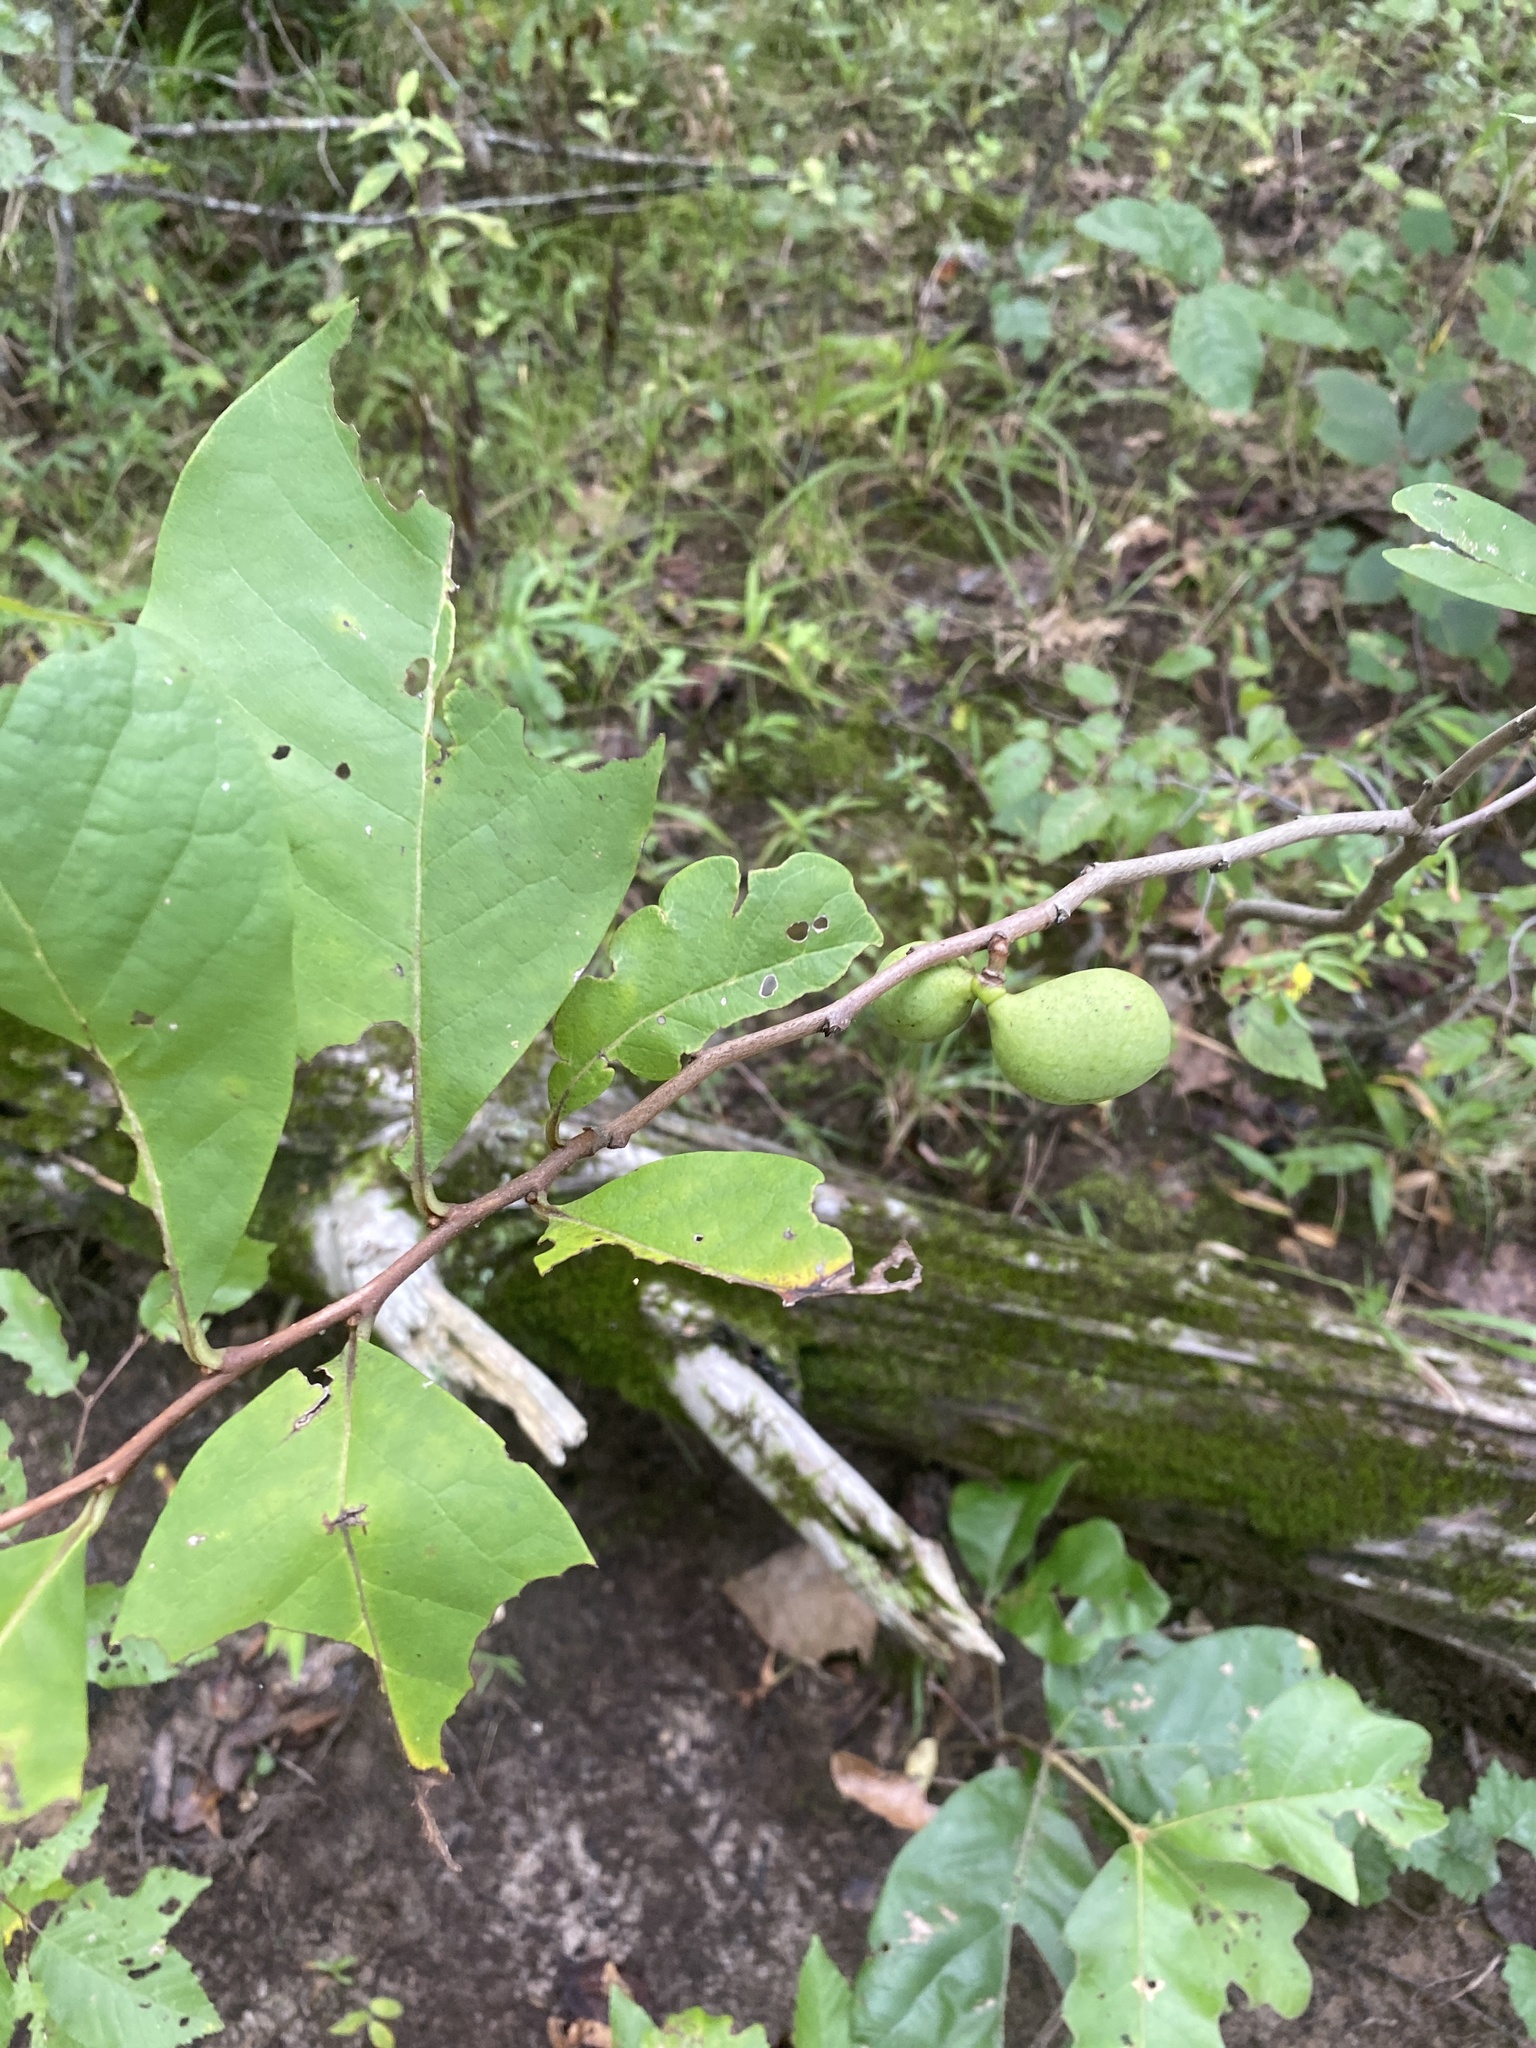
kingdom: Plantae
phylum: Tracheophyta
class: Magnoliopsida
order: Magnoliales
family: Annonaceae
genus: Asimina
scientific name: Asimina parviflora
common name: Dwarf pawpaw
